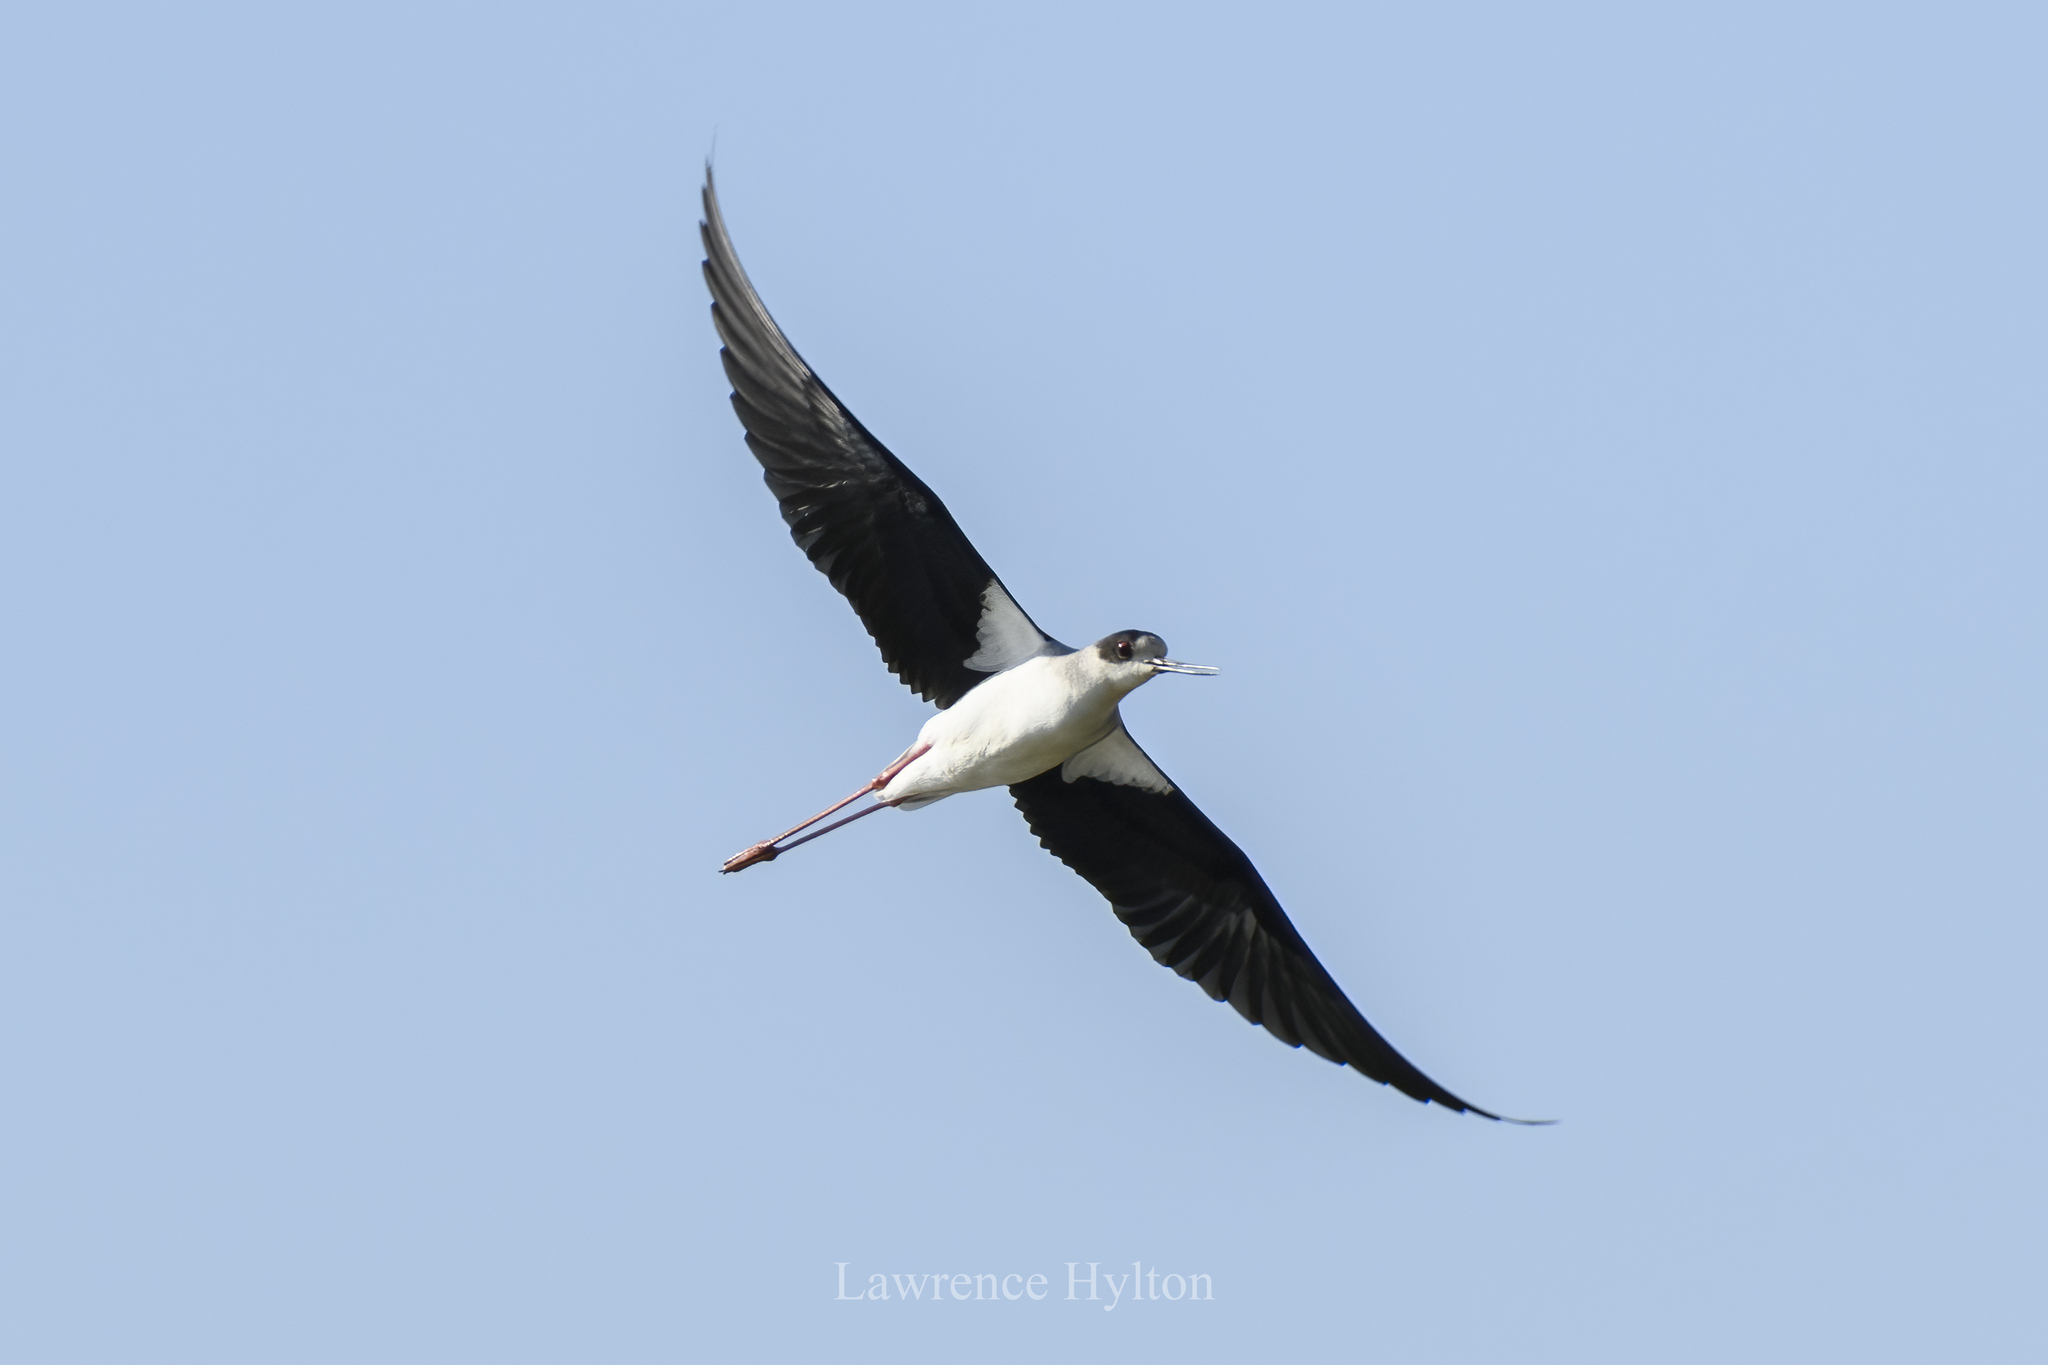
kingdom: Animalia
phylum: Chordata
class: Aves
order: Charadriiformes
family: Recurvirostridae
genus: Himantopus
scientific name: Himantopus himantopus
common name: Black-winged stilt
